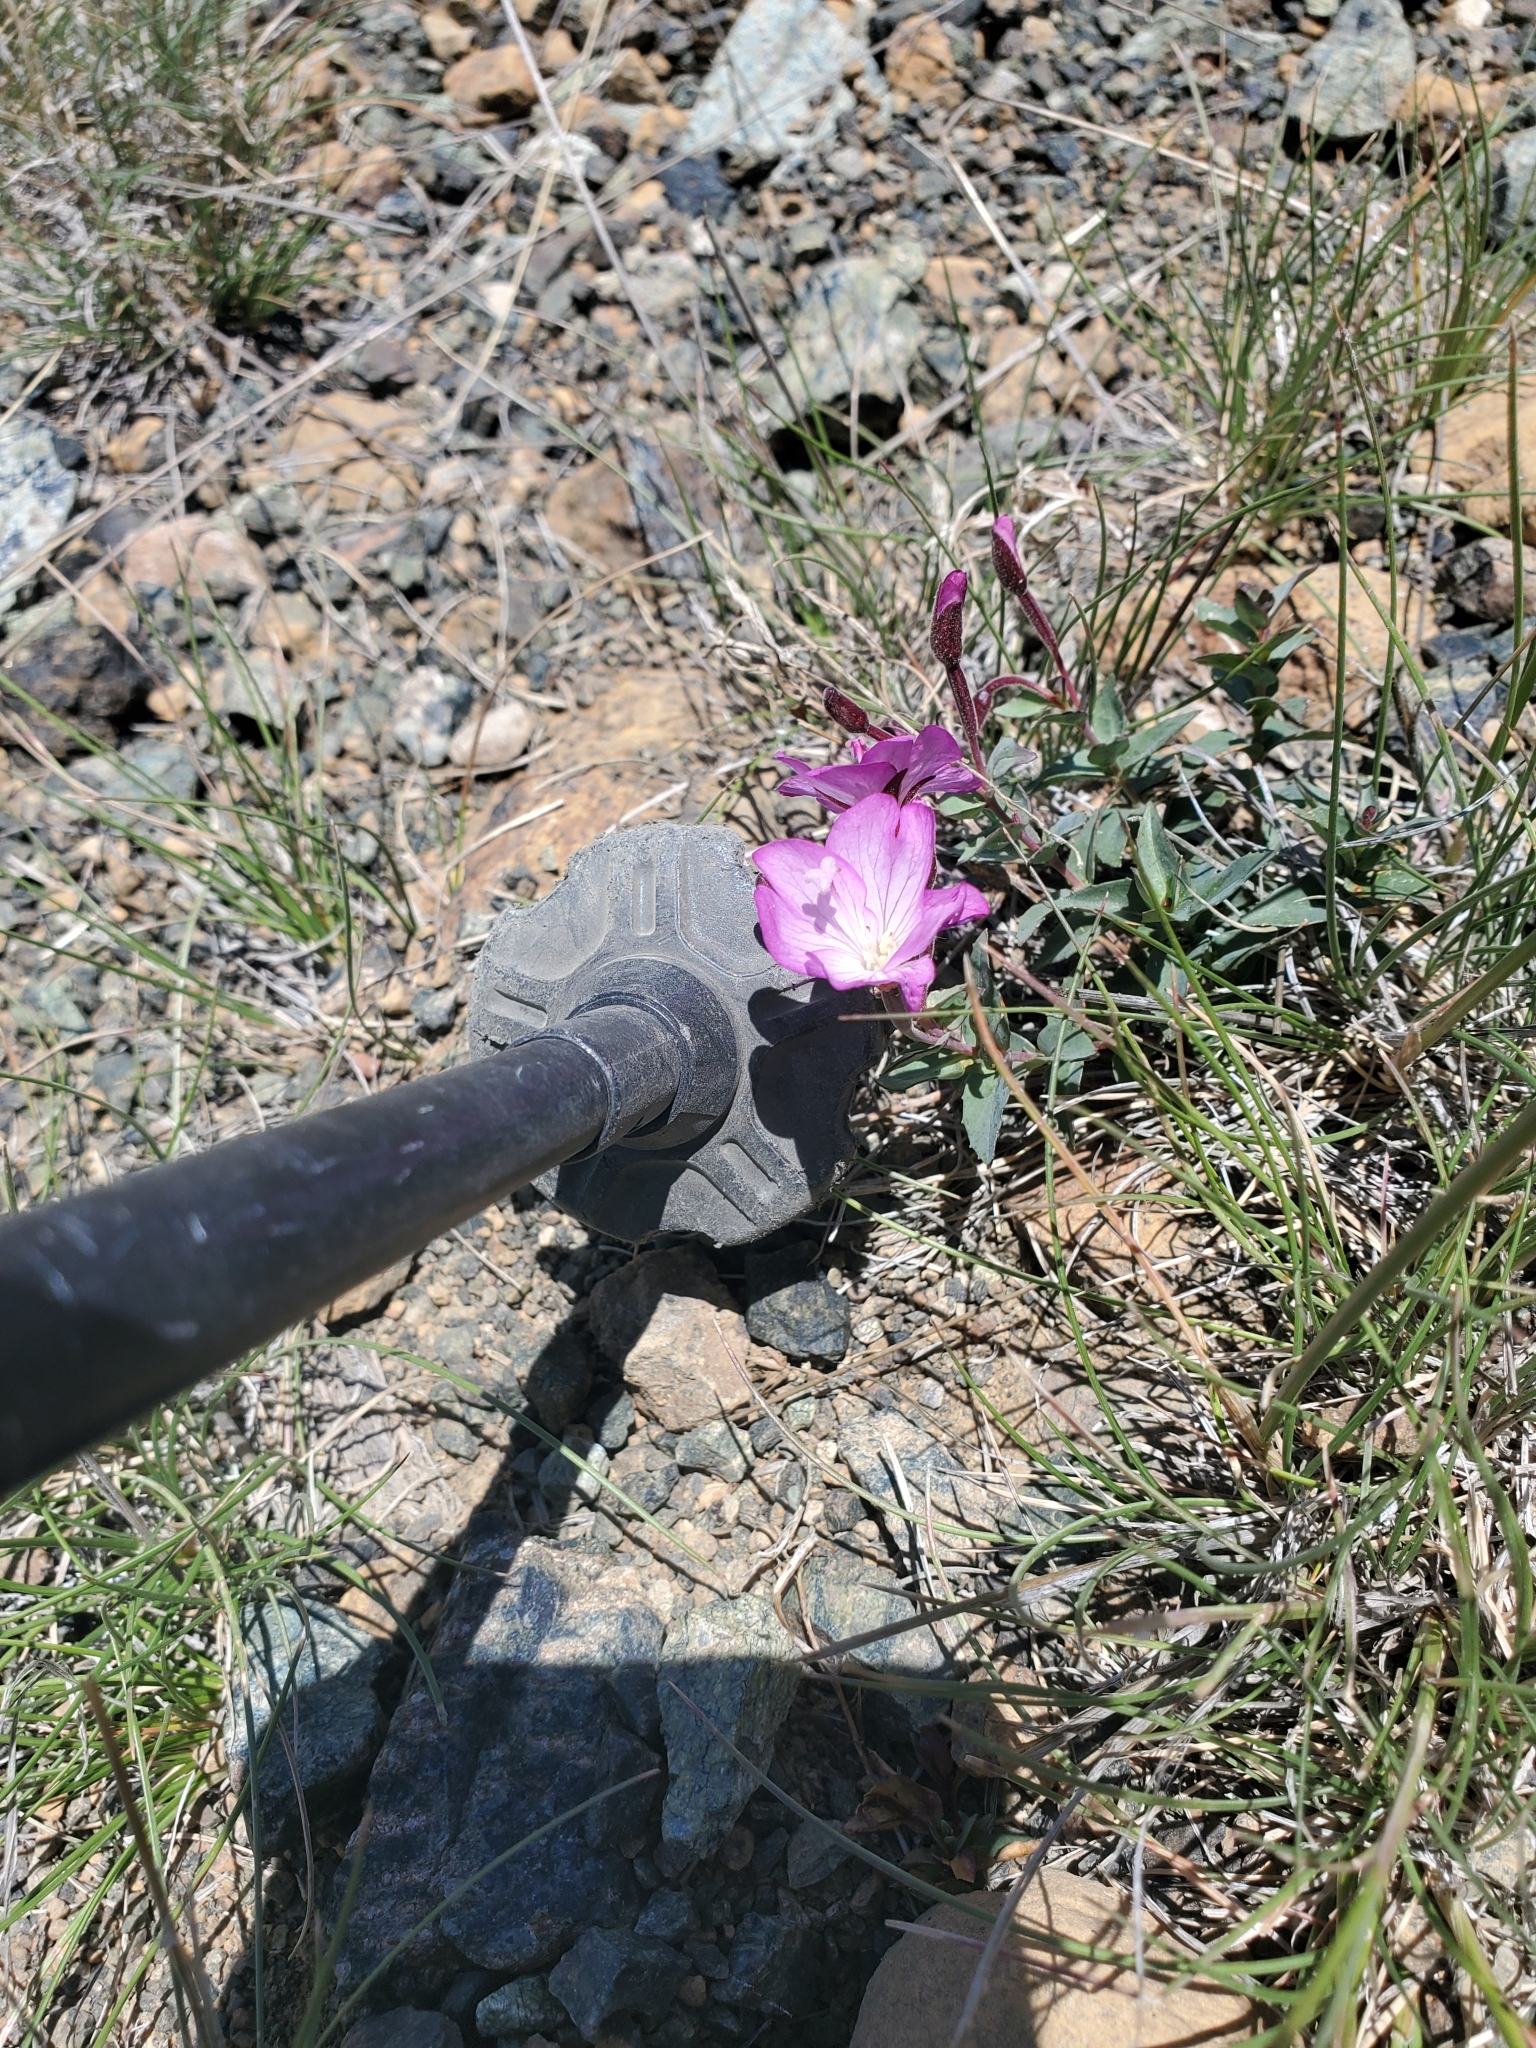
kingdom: Plantae
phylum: Tracheophyta
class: Magnoliopsida
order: Myrtales
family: Onagraceae
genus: Epilobium
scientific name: Epilobium siskiyouense
